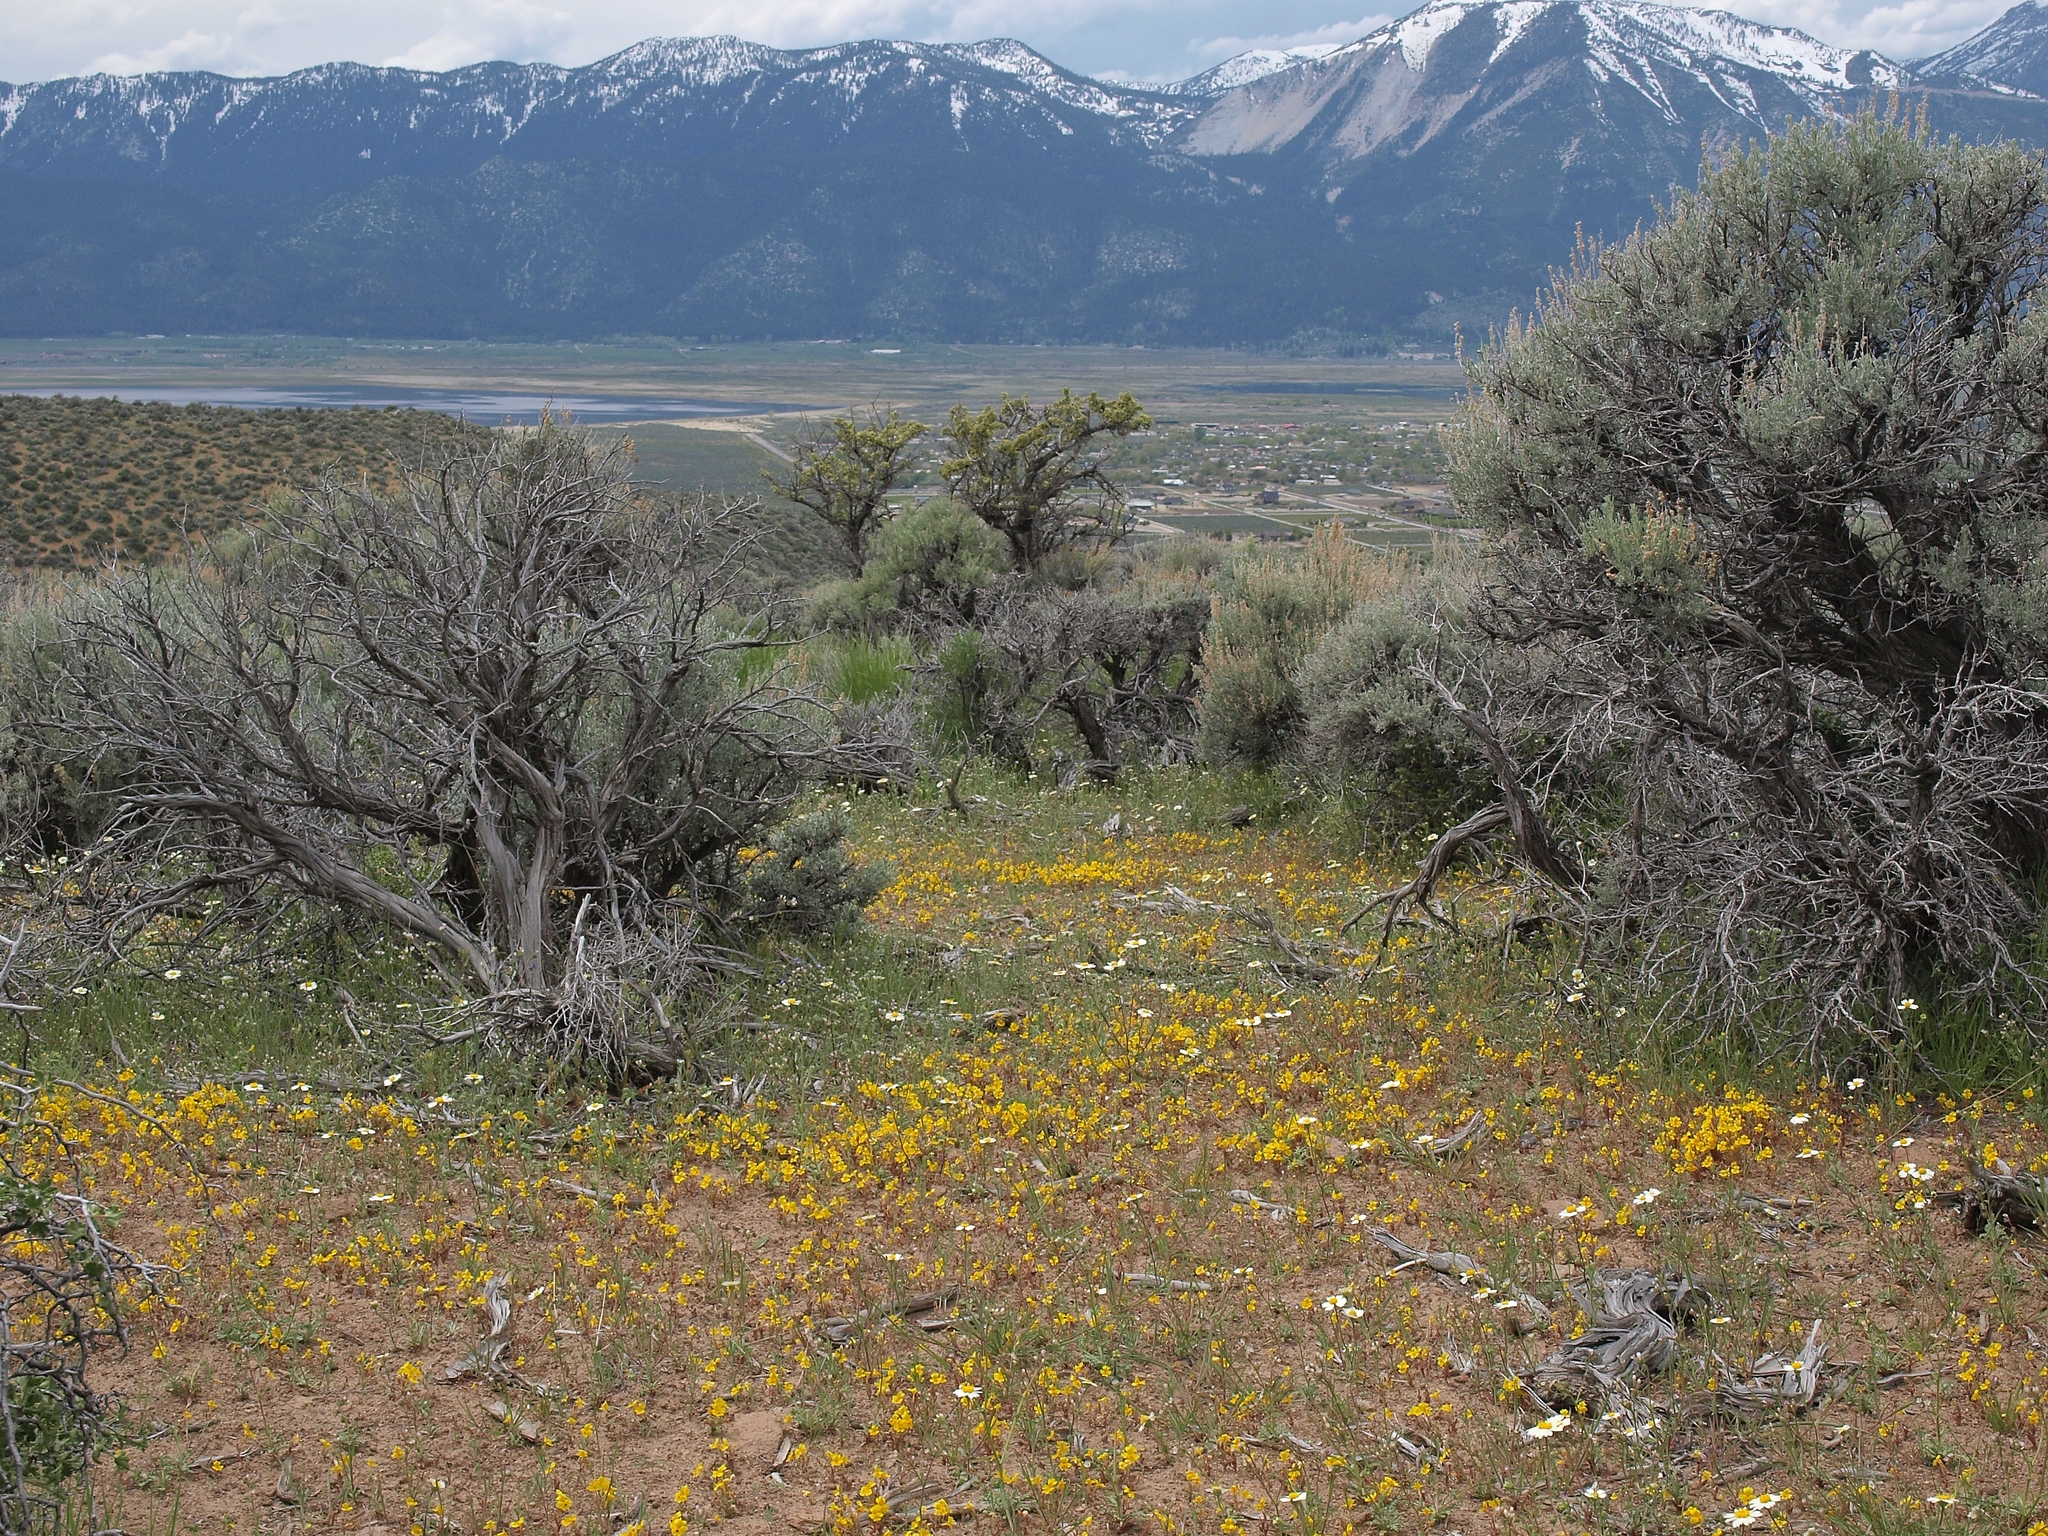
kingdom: Plantae
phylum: Tracheophyta
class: Magnoliopsida
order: Lamiales
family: Phrymaceae
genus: Erythranthe
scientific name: Erythranthe carsonensis
